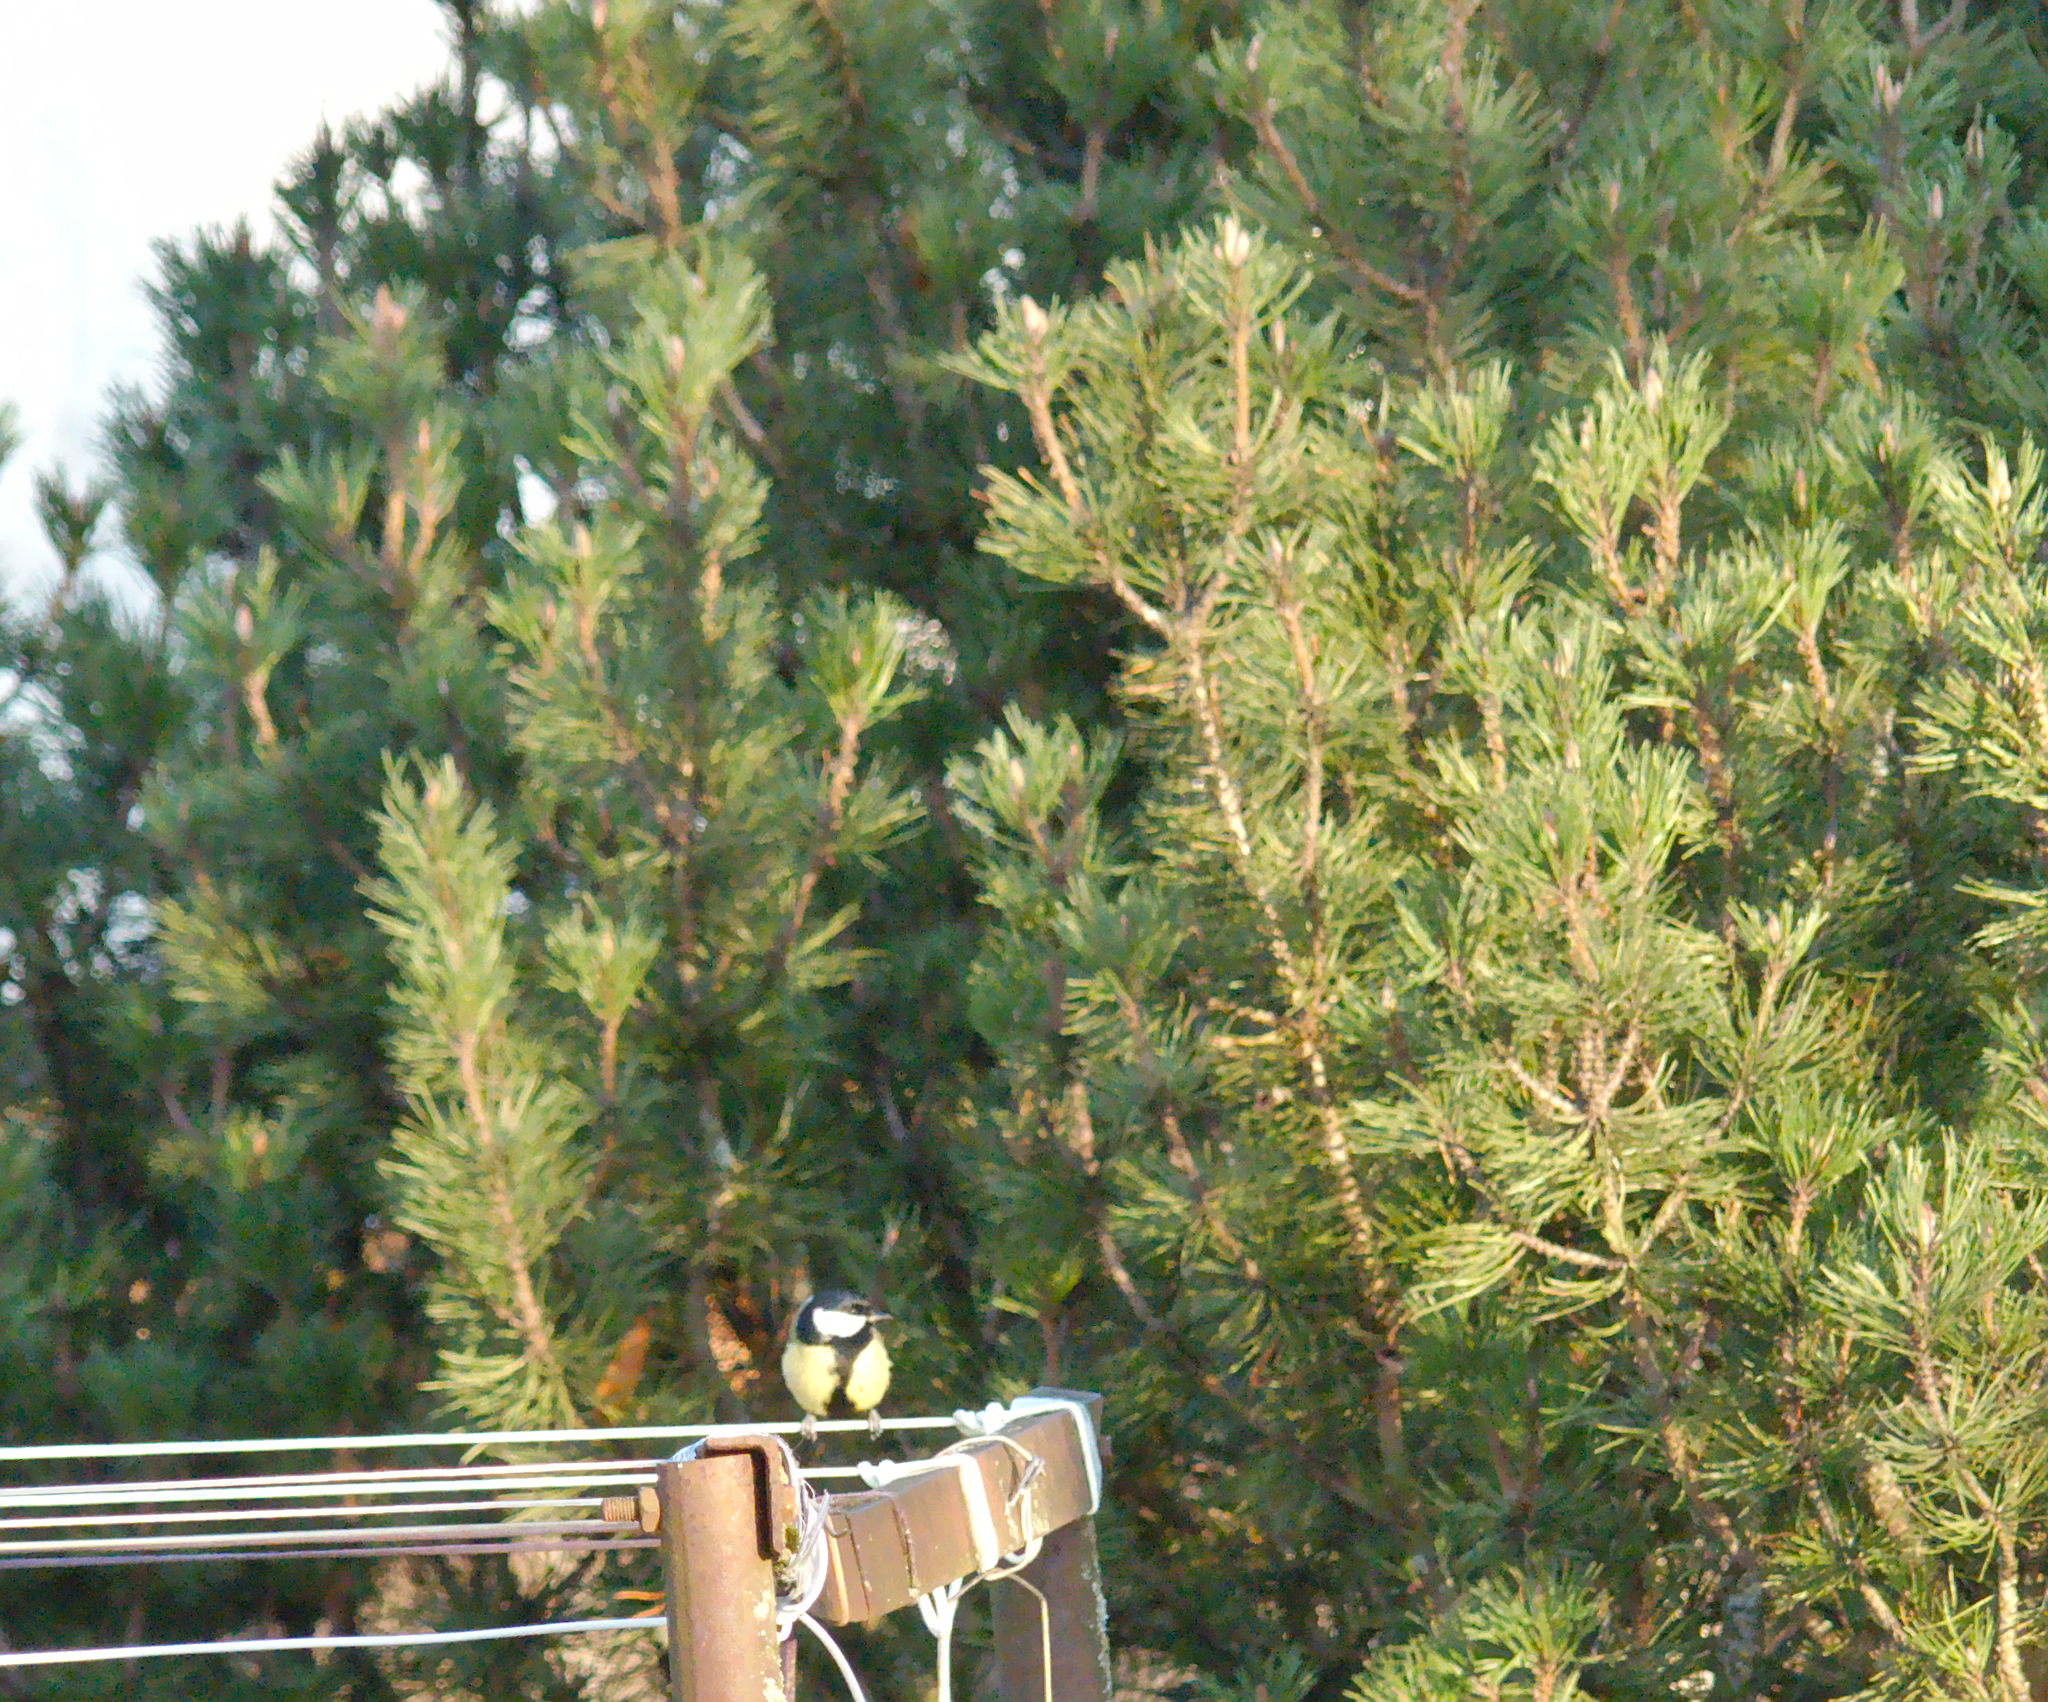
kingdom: Animalia
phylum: Chordata
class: Aves
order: Passeriformes
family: Paridae
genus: Parus
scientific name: Parus major
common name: Great tit
